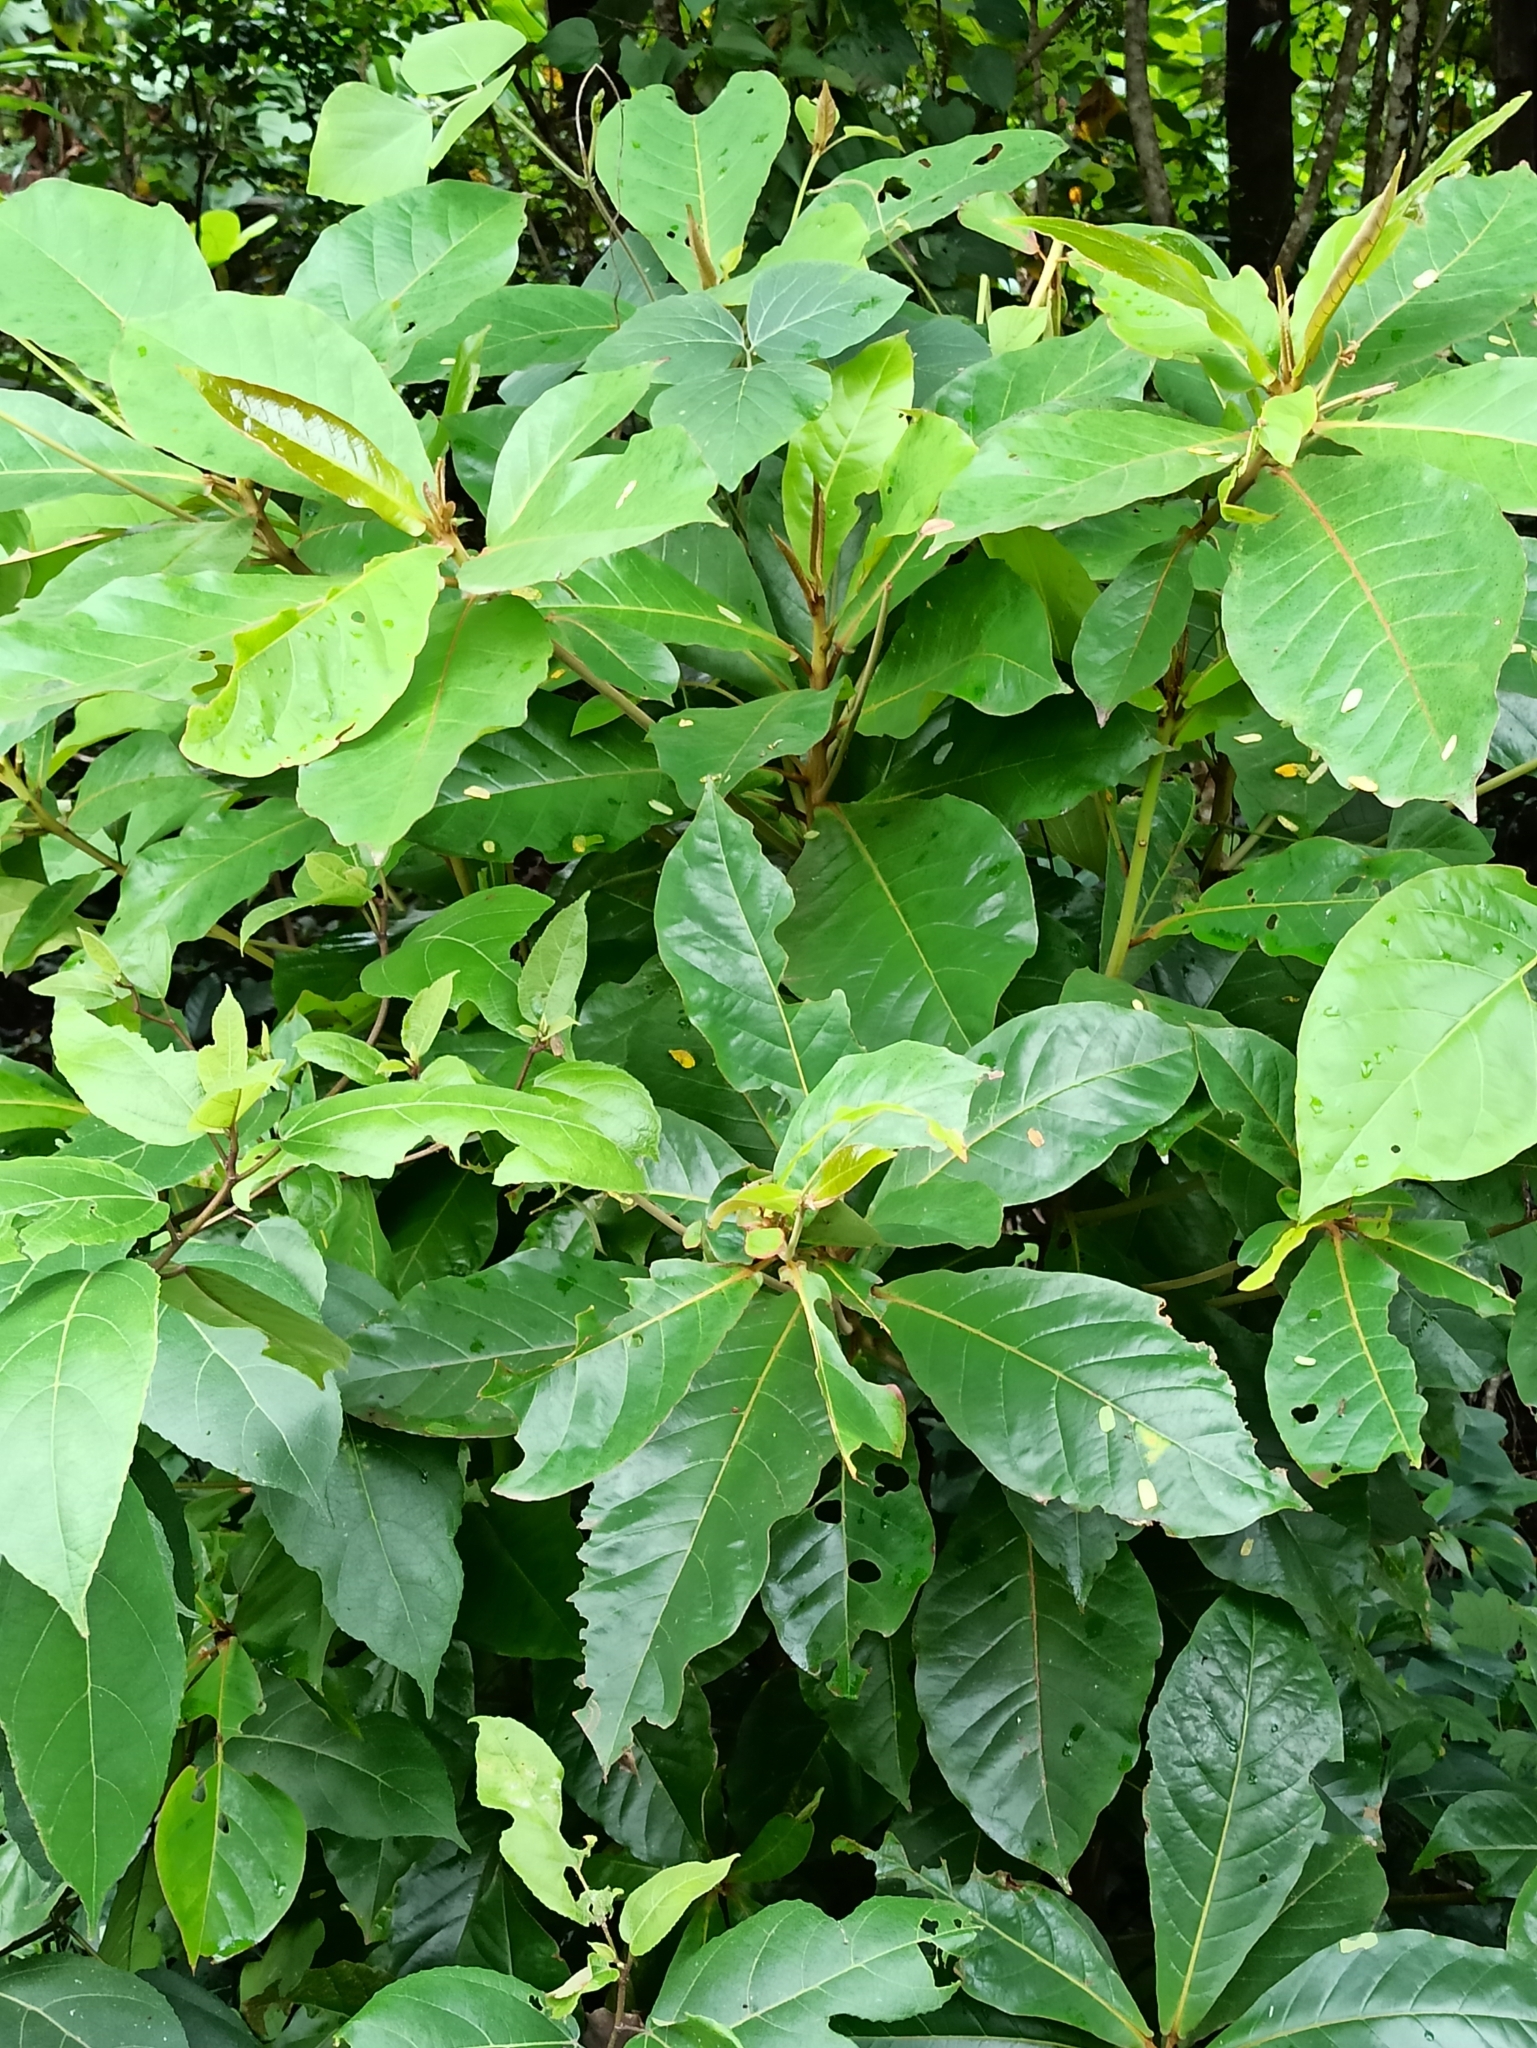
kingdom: Plantae
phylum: Tracheophyta
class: Magnoliopsida
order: Myrtales
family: Combretaceae
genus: Terminalia
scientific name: Terminalia catappa
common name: Tropical almond
